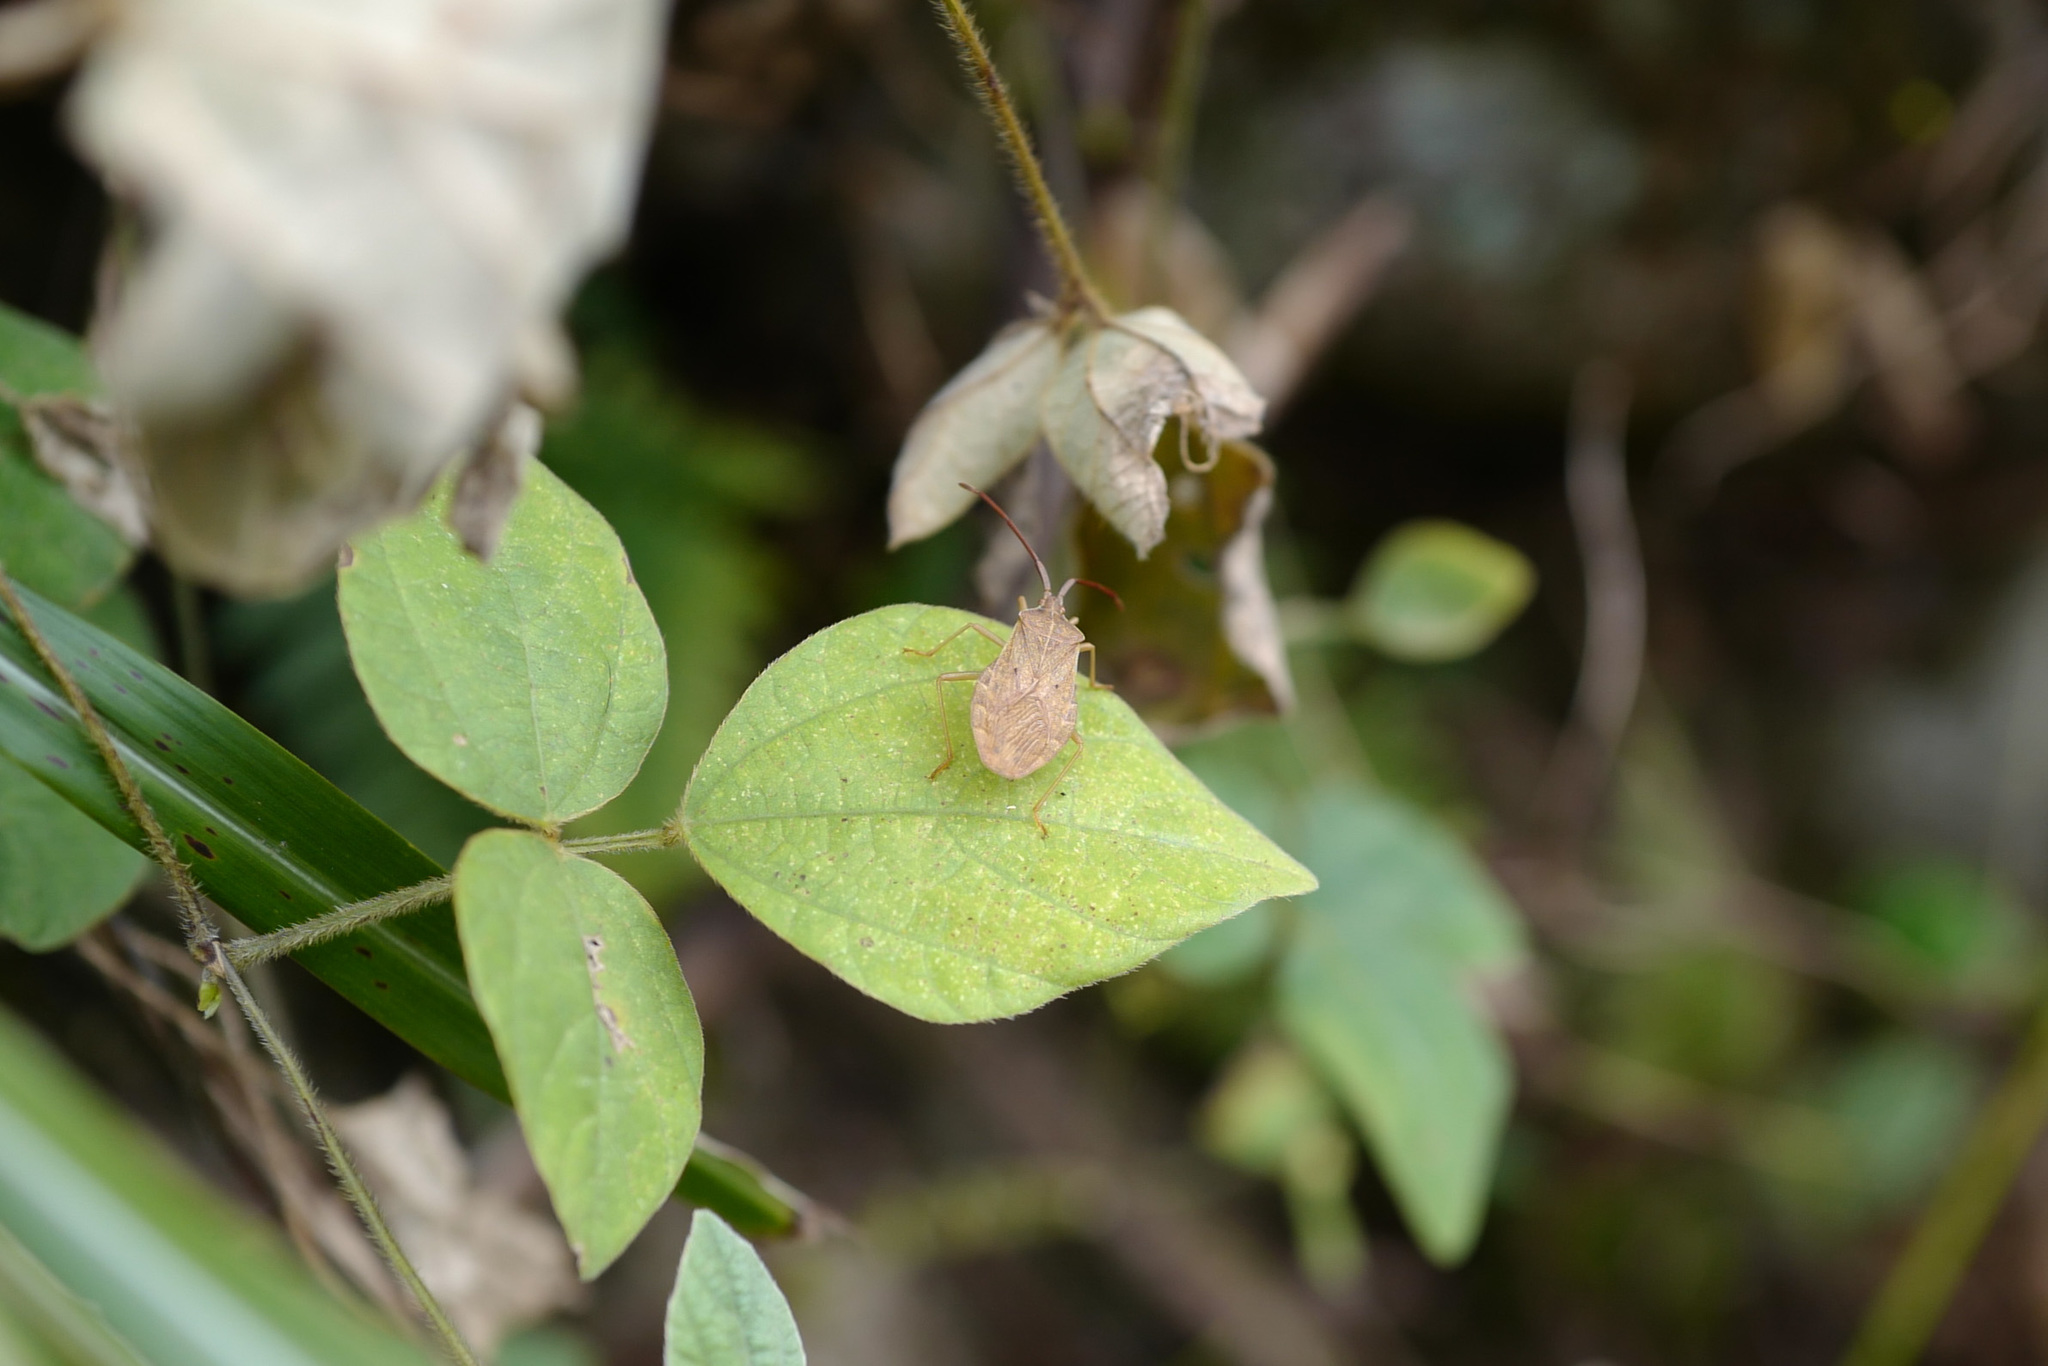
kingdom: Animalia
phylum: Arthropoda
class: Insecta
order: Hemiptera
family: Coreidae
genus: Homoeocerus
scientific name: Homoeocerus unipunctatus
